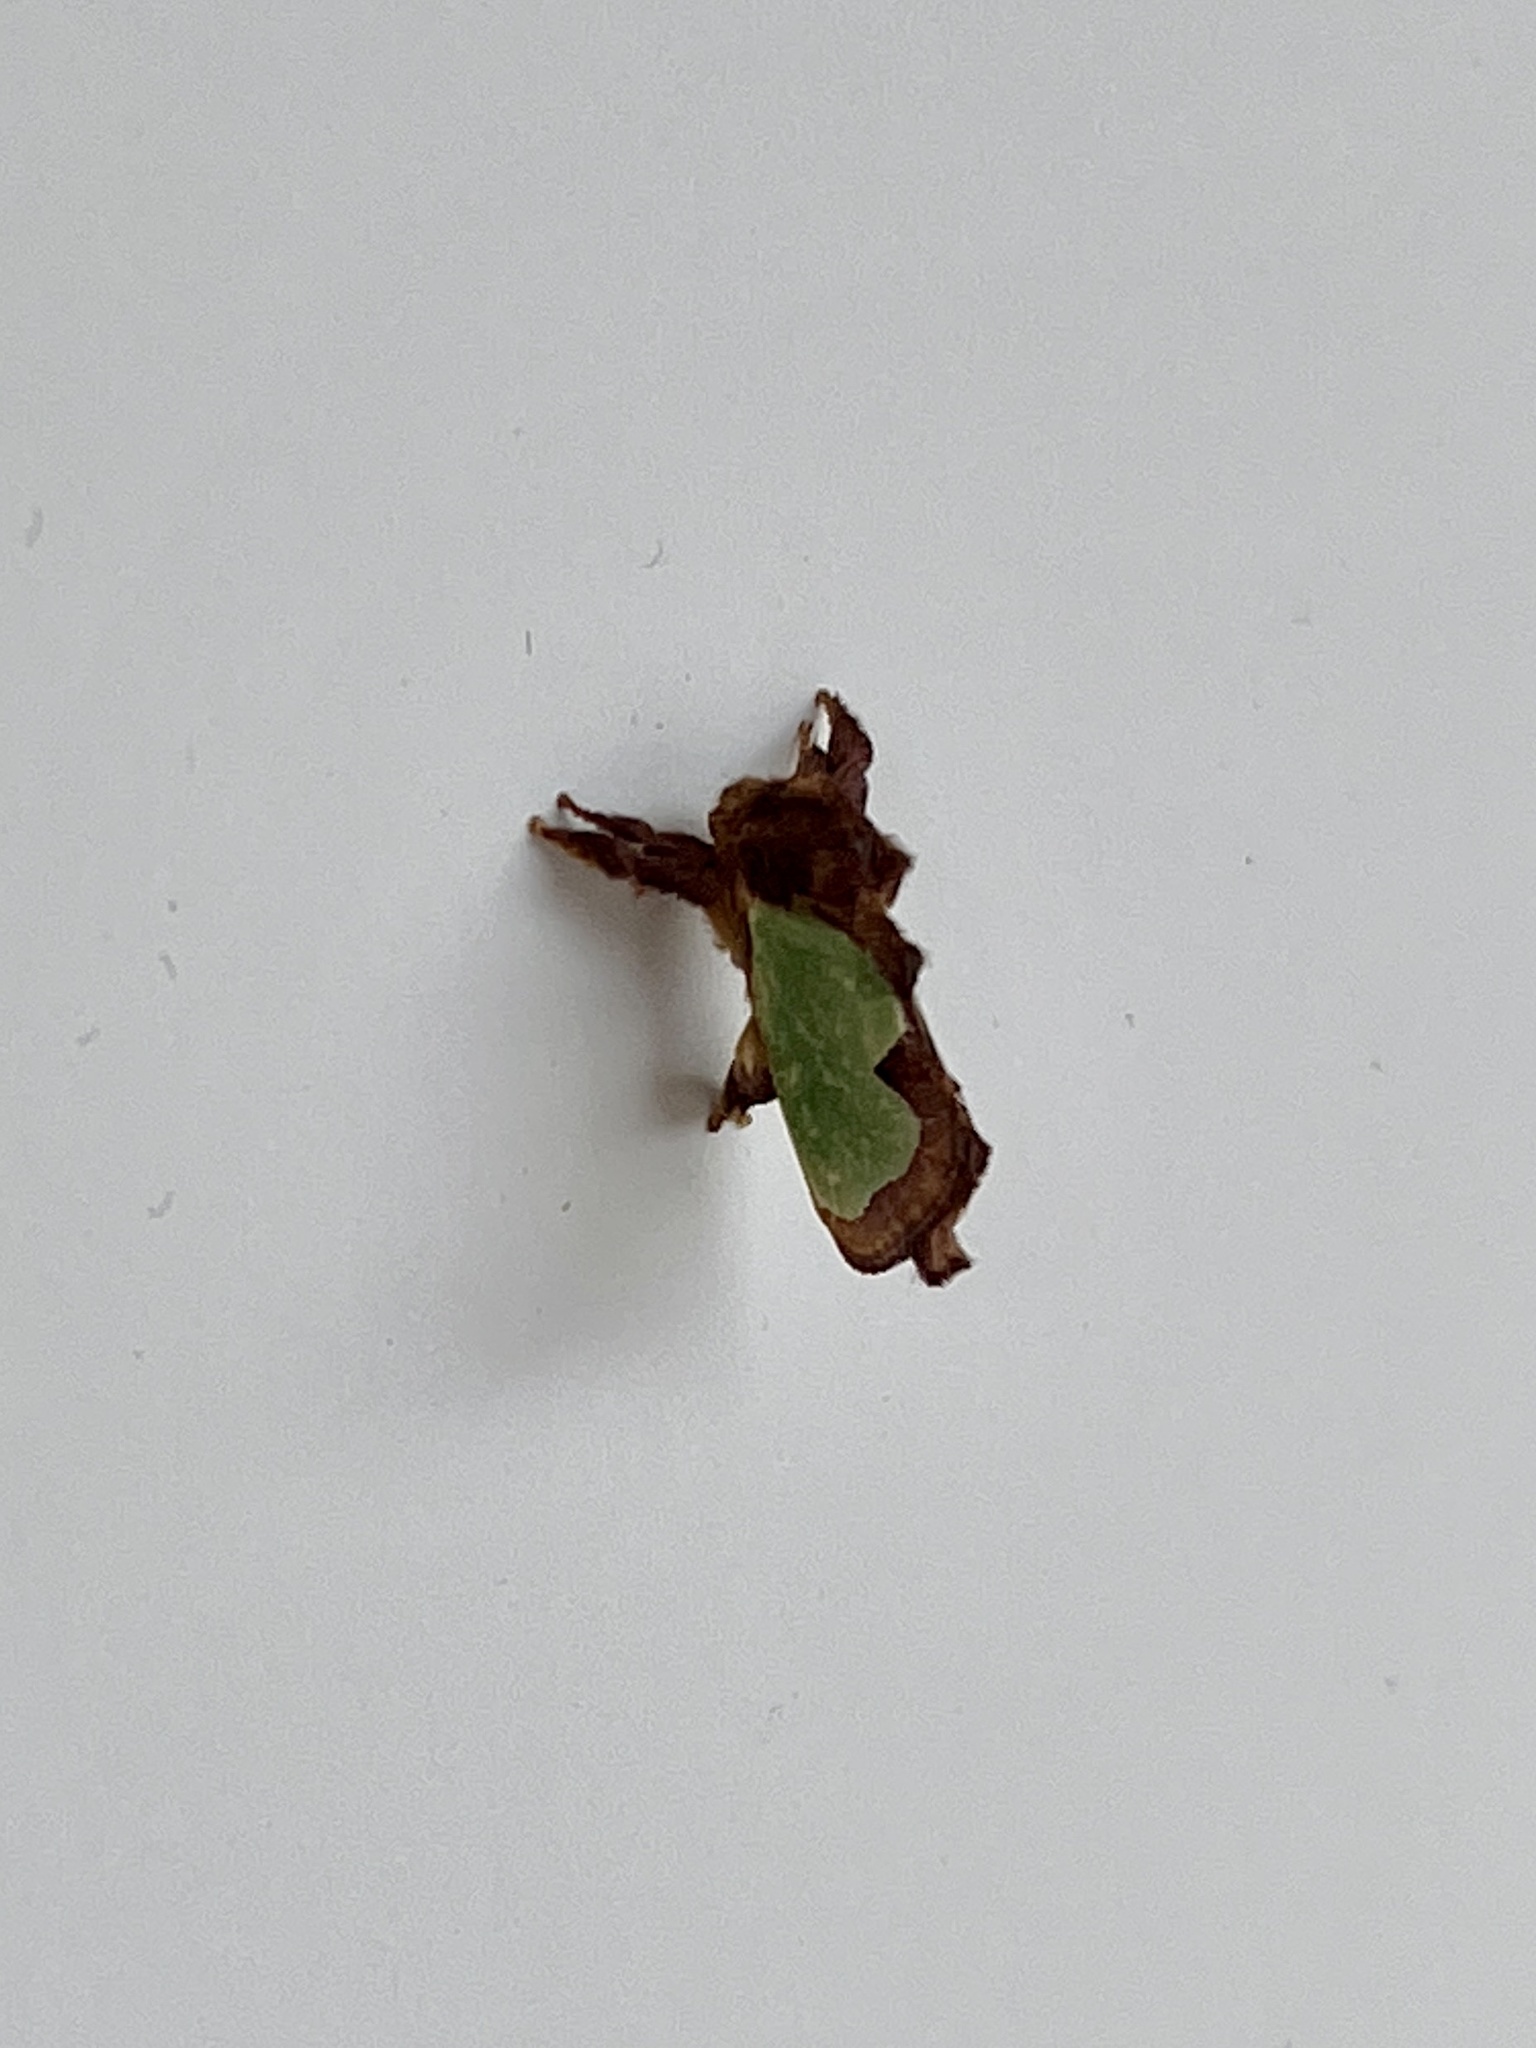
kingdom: Animalia
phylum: Arthropoda
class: Insecta
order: Lepidoptera
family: Limacodidae
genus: Euclea
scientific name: Euclea incisa
